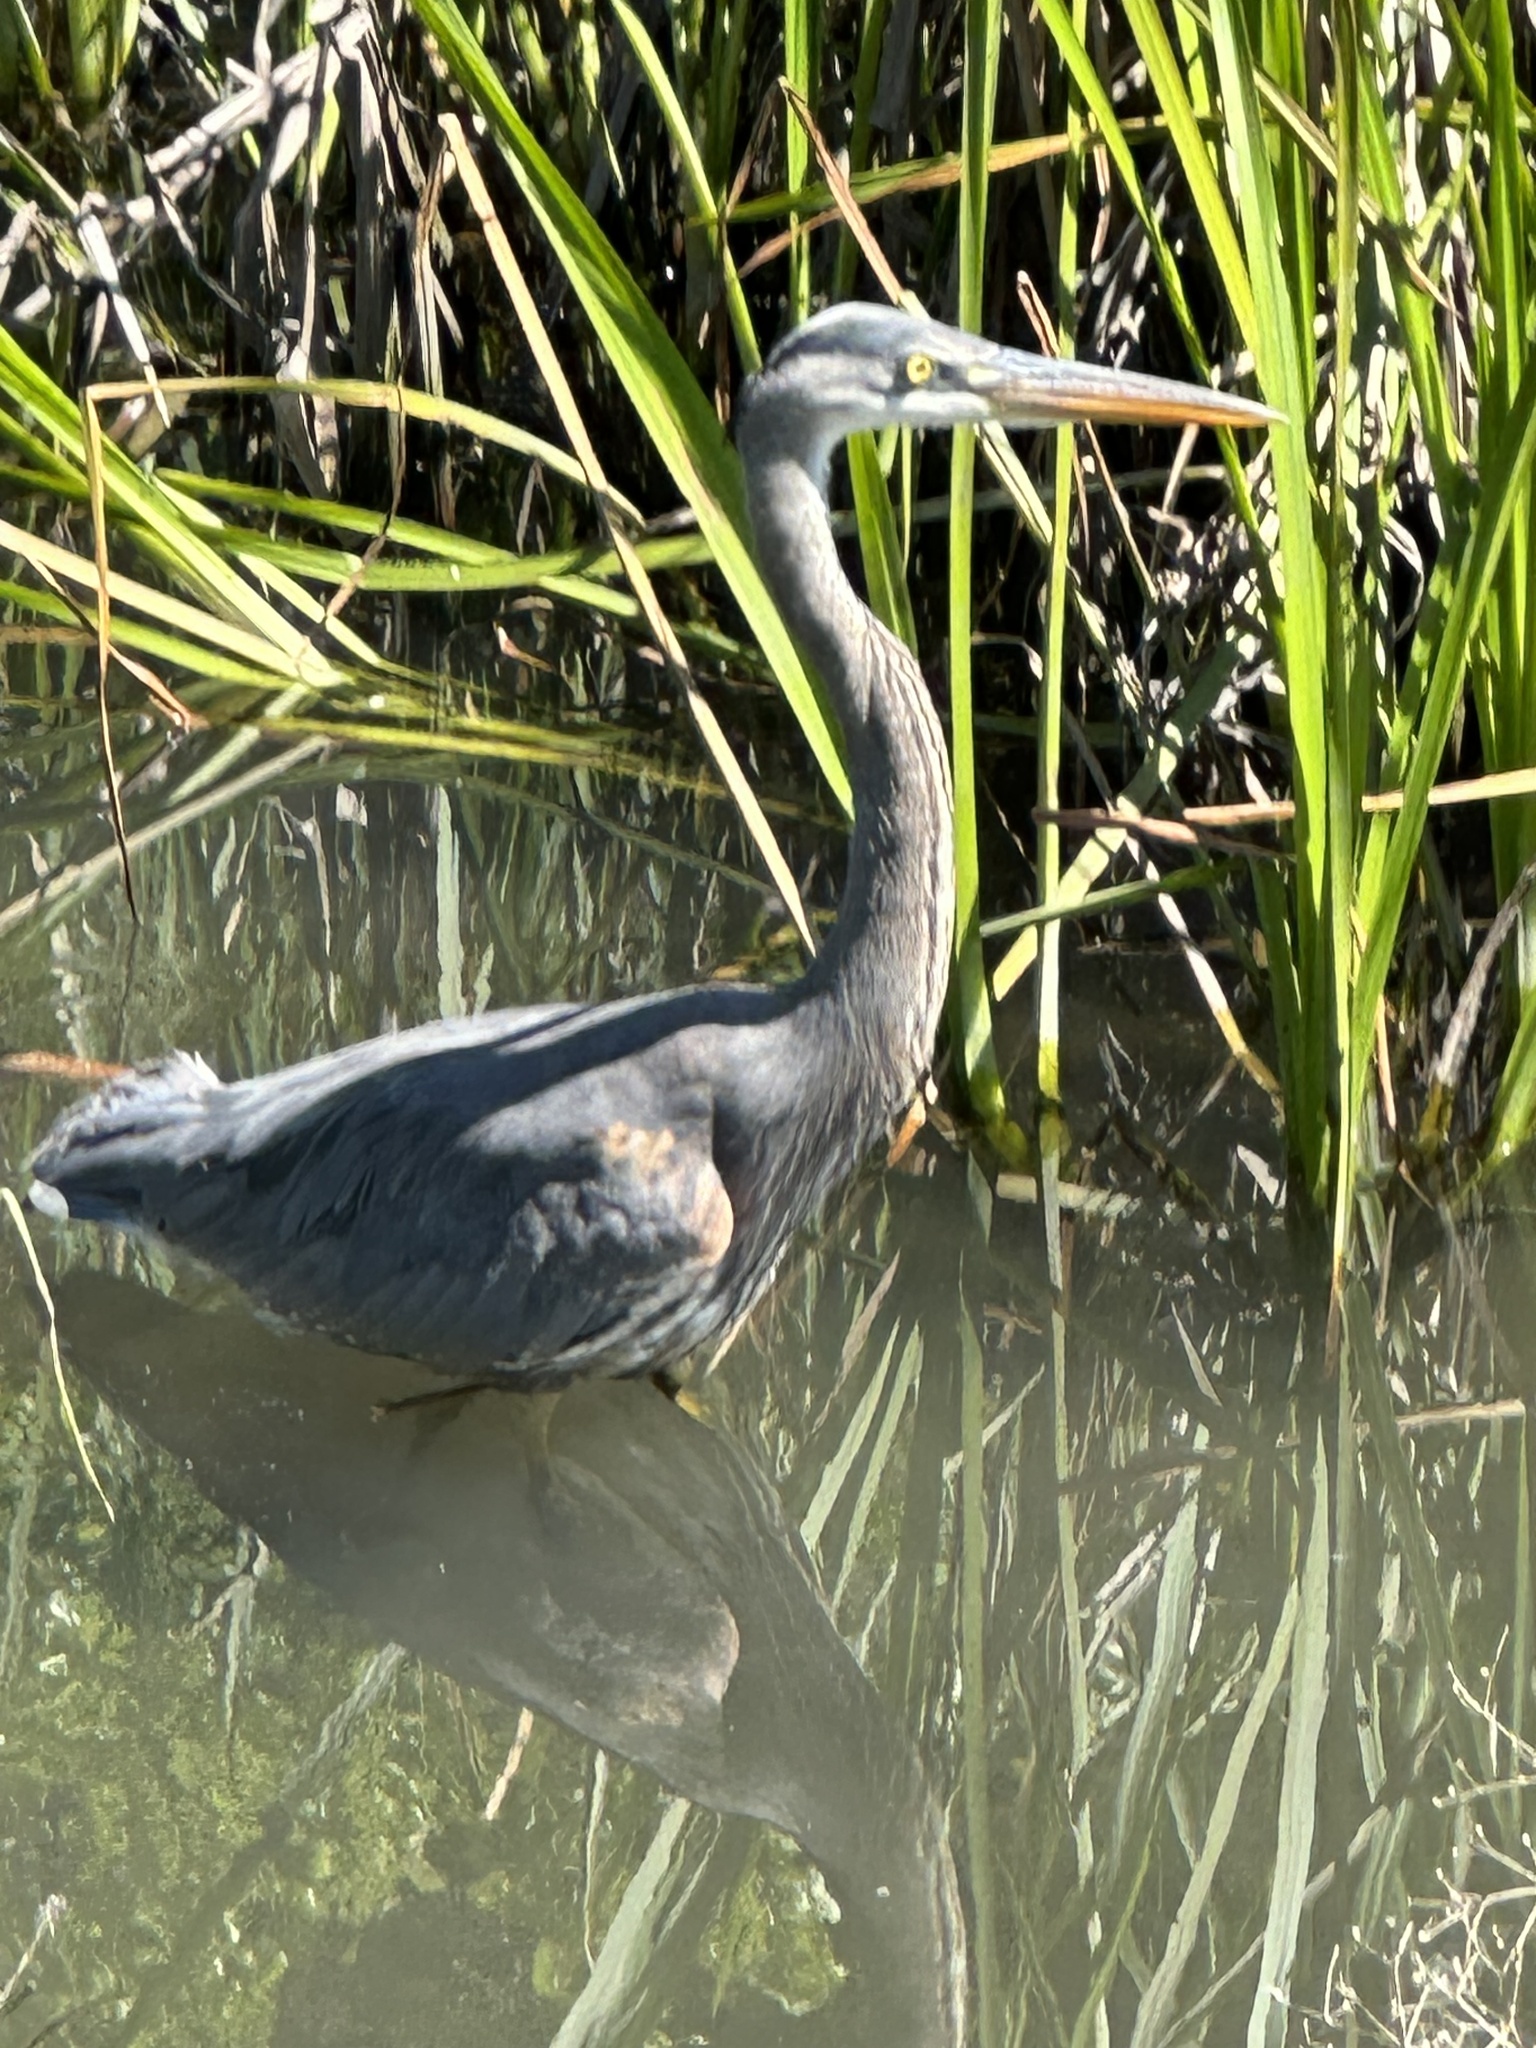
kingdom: Animalia
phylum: Chordata
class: Aves
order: Pelecaniformes
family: Ardeidae
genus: Ardea
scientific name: Ardea herodias
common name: Great blue heron
